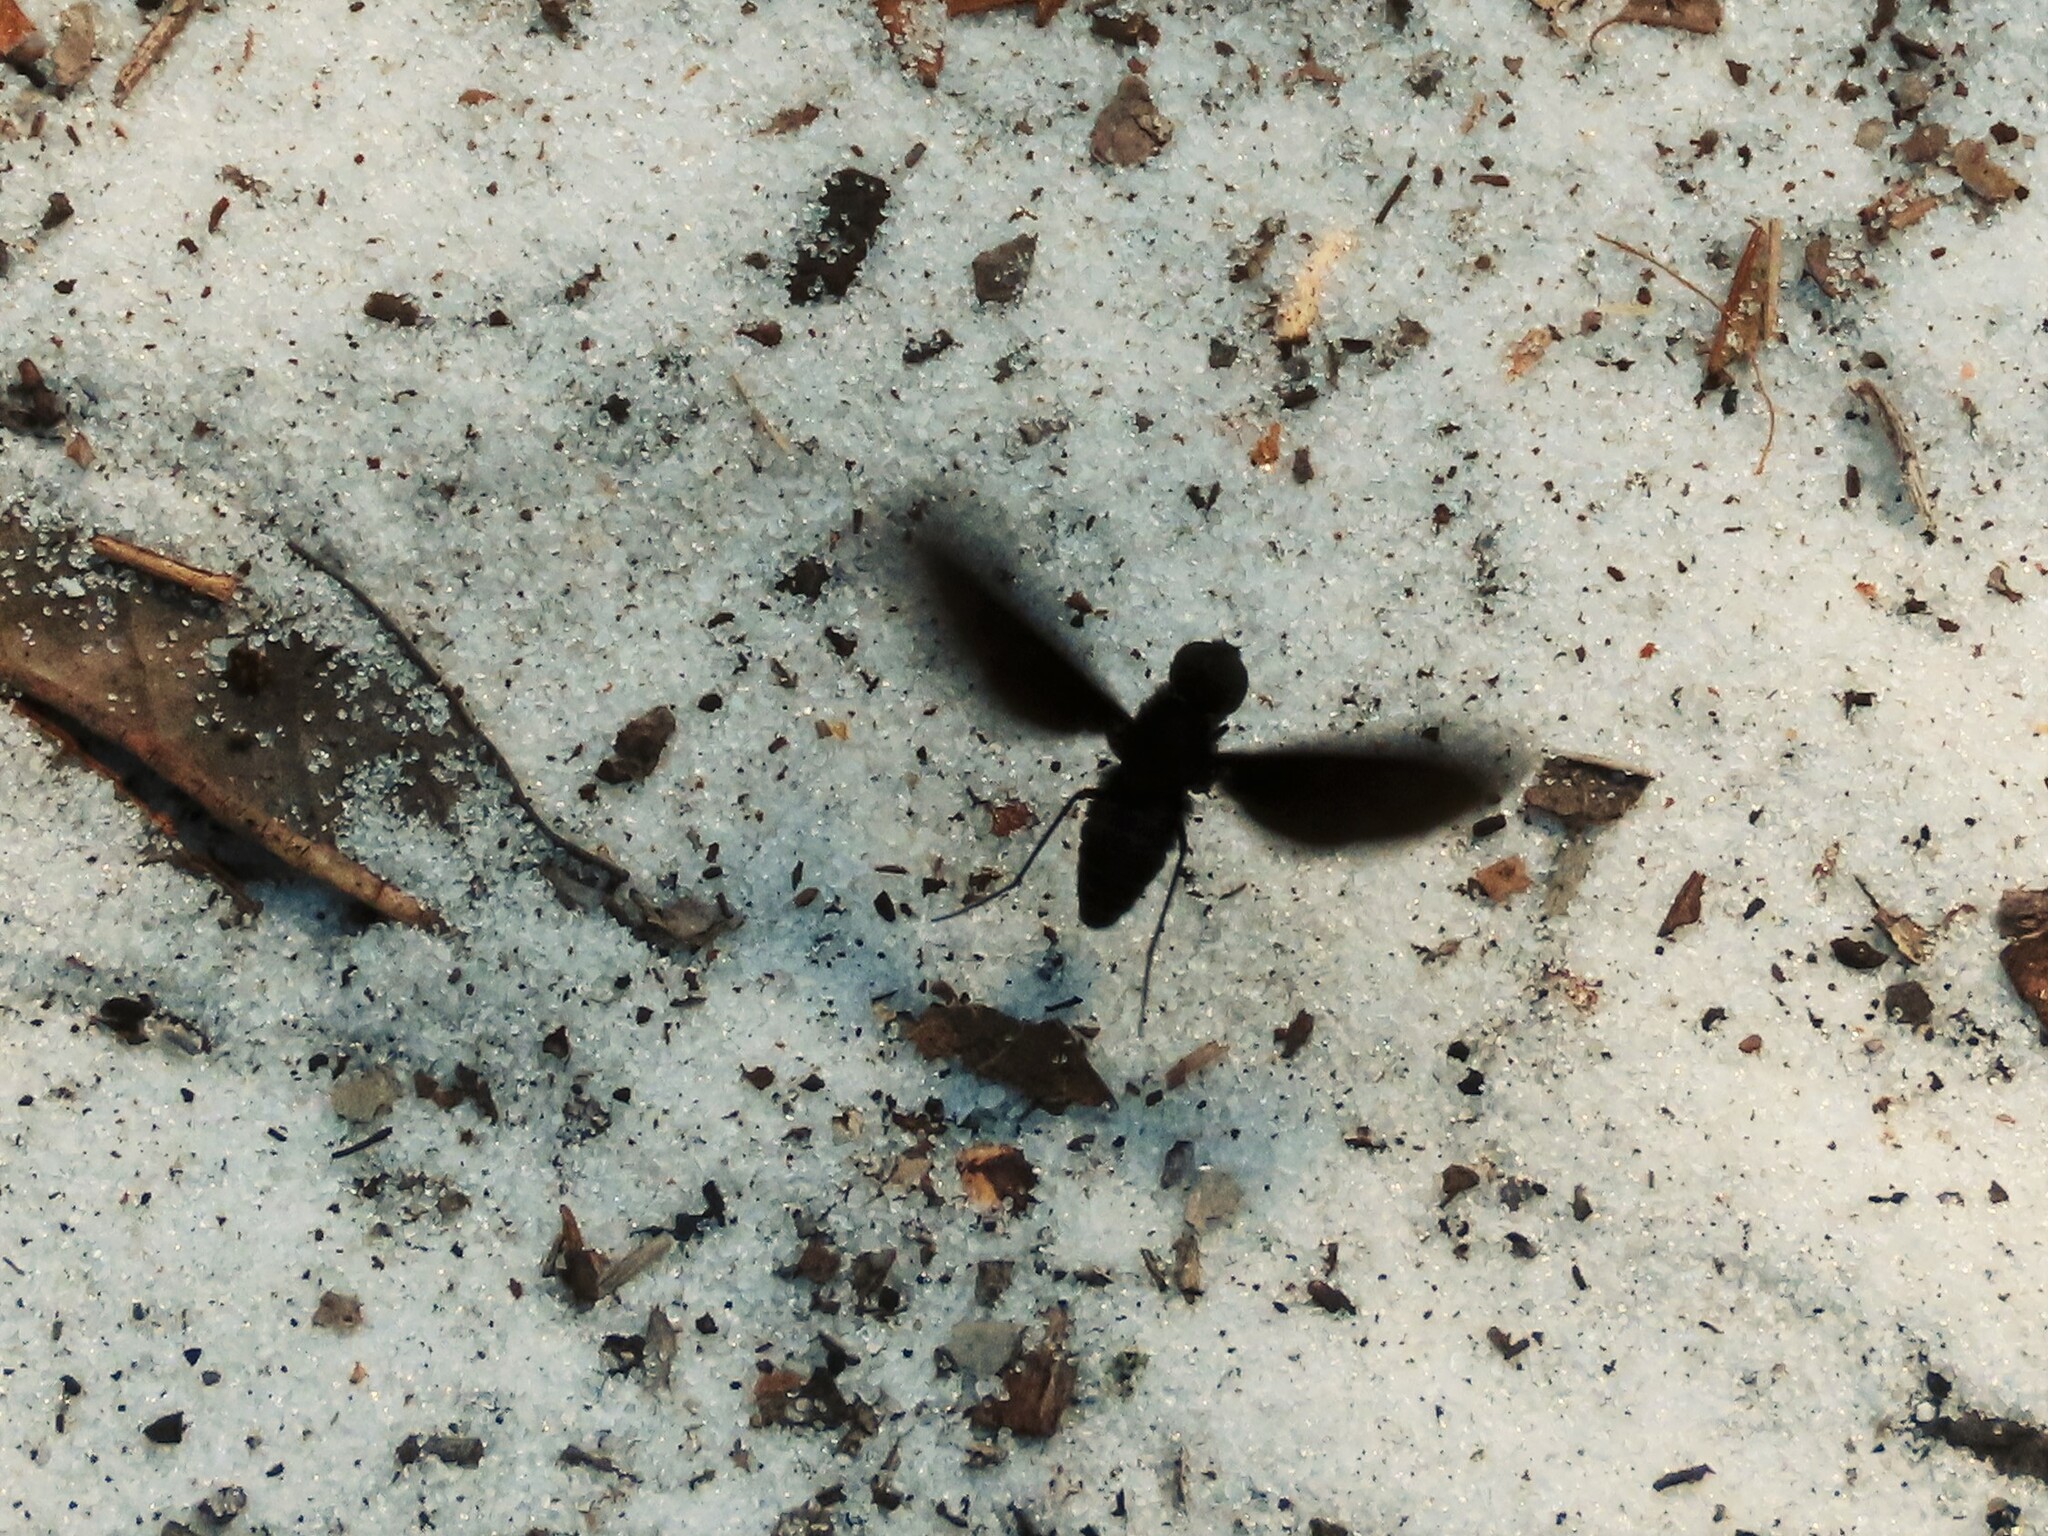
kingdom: Animalia
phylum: Arthropoda
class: Insecta
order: Diptera
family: Bombyliidae
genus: Anthrax
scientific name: Anthrax analis
